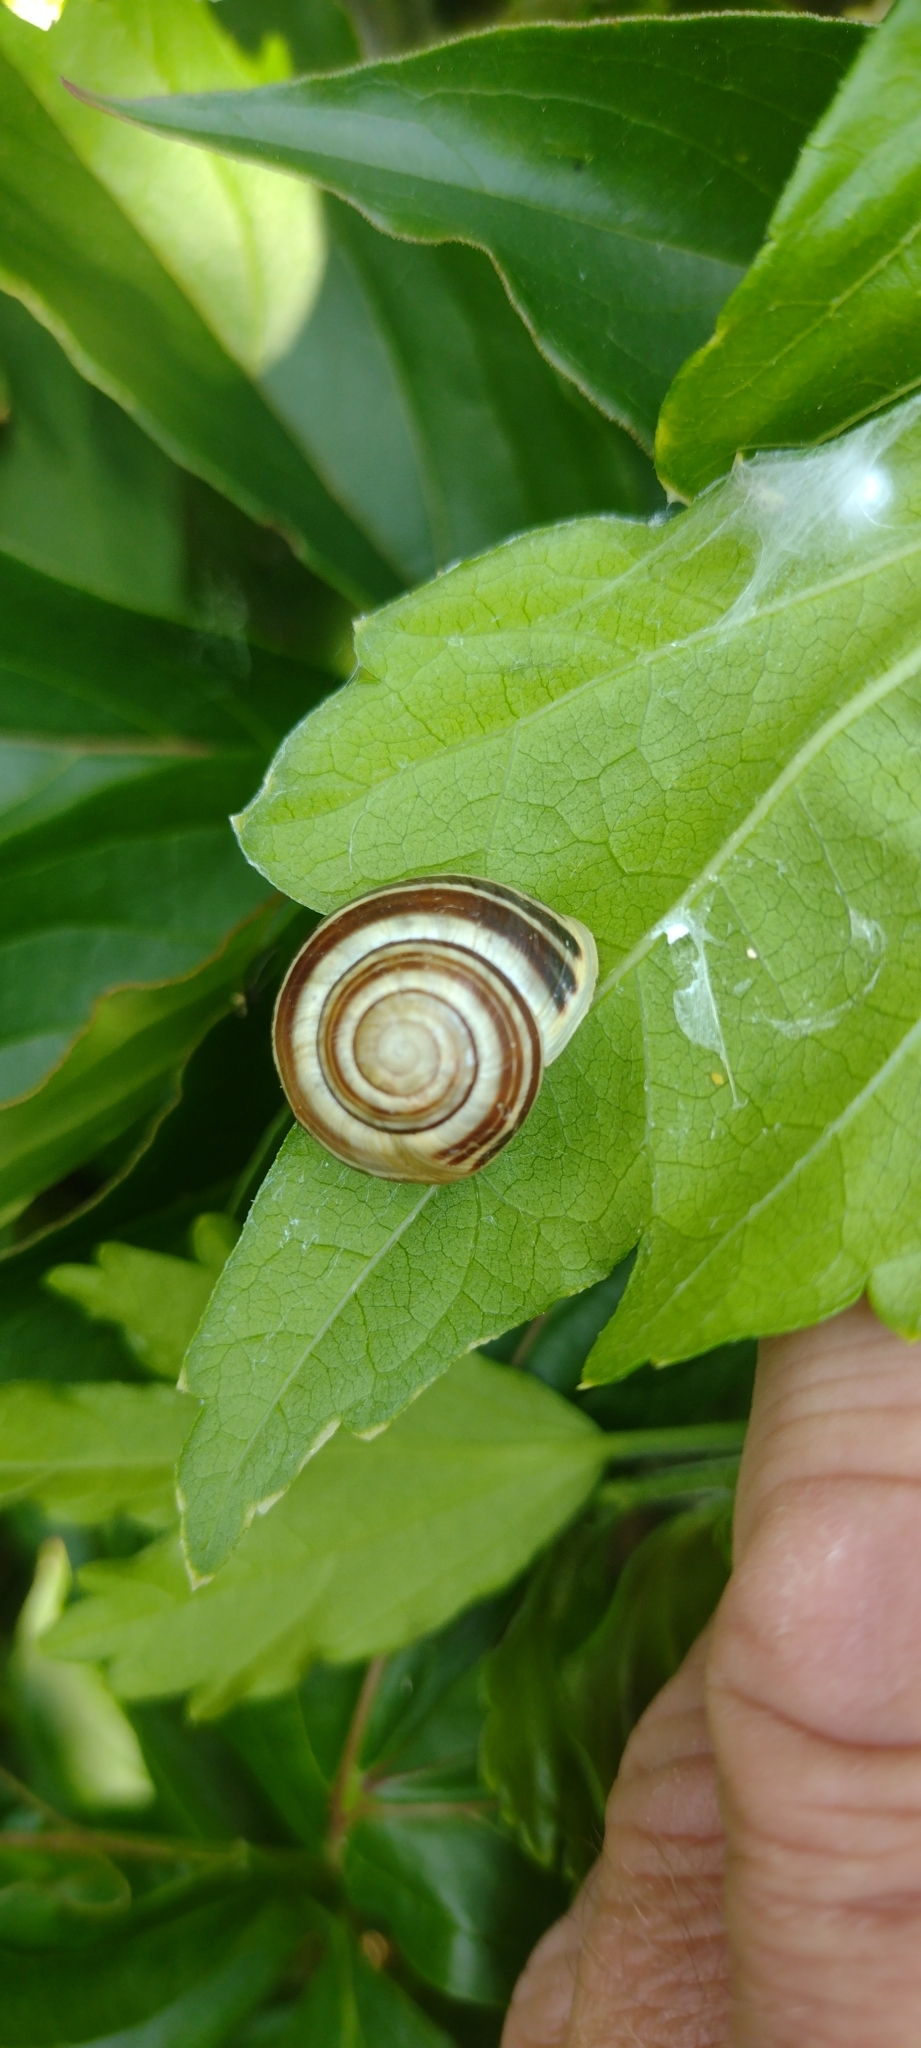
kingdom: Animalia
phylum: Mollusca
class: Gastropoda
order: Stylommatophora
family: Helicidae
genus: Cepaea
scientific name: Cepaea hortensis
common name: White-lip gardensnail
